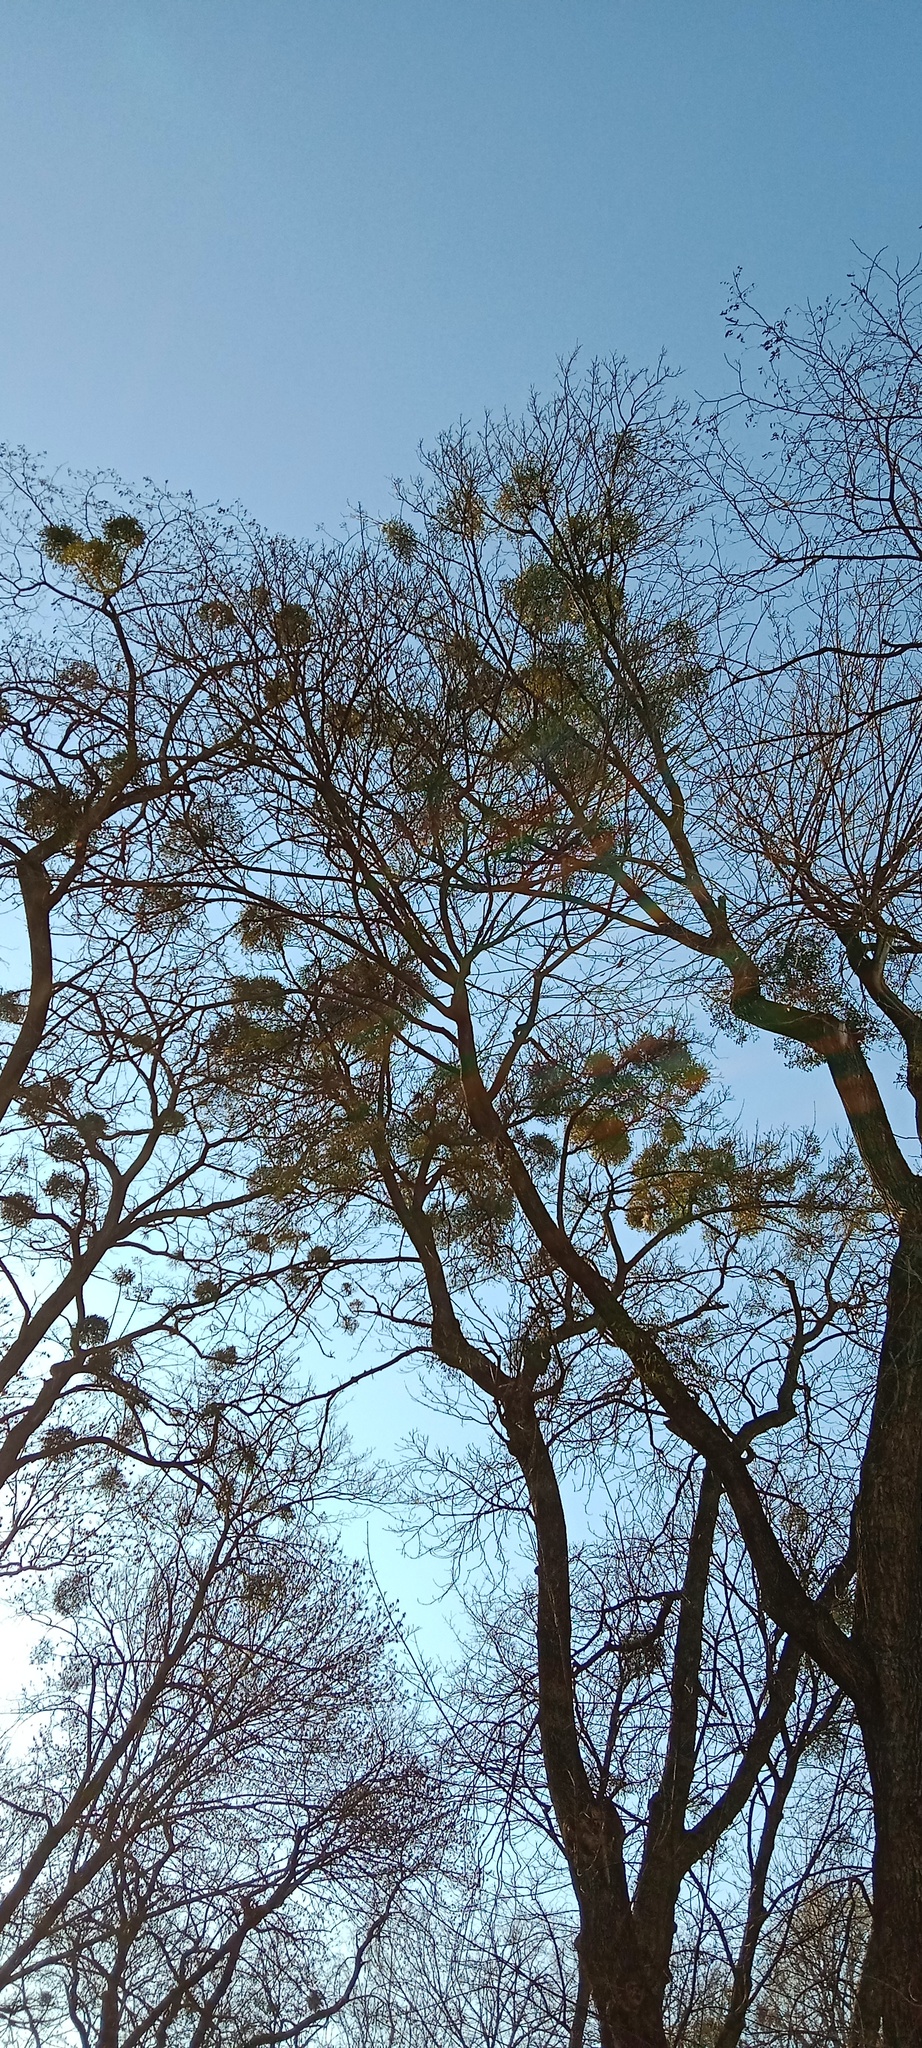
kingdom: Plantae
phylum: Tracheophyta
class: Magnoliopsida
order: Santalales
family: Viscaceae
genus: Viscum
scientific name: Viscum album
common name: Mistletoe
